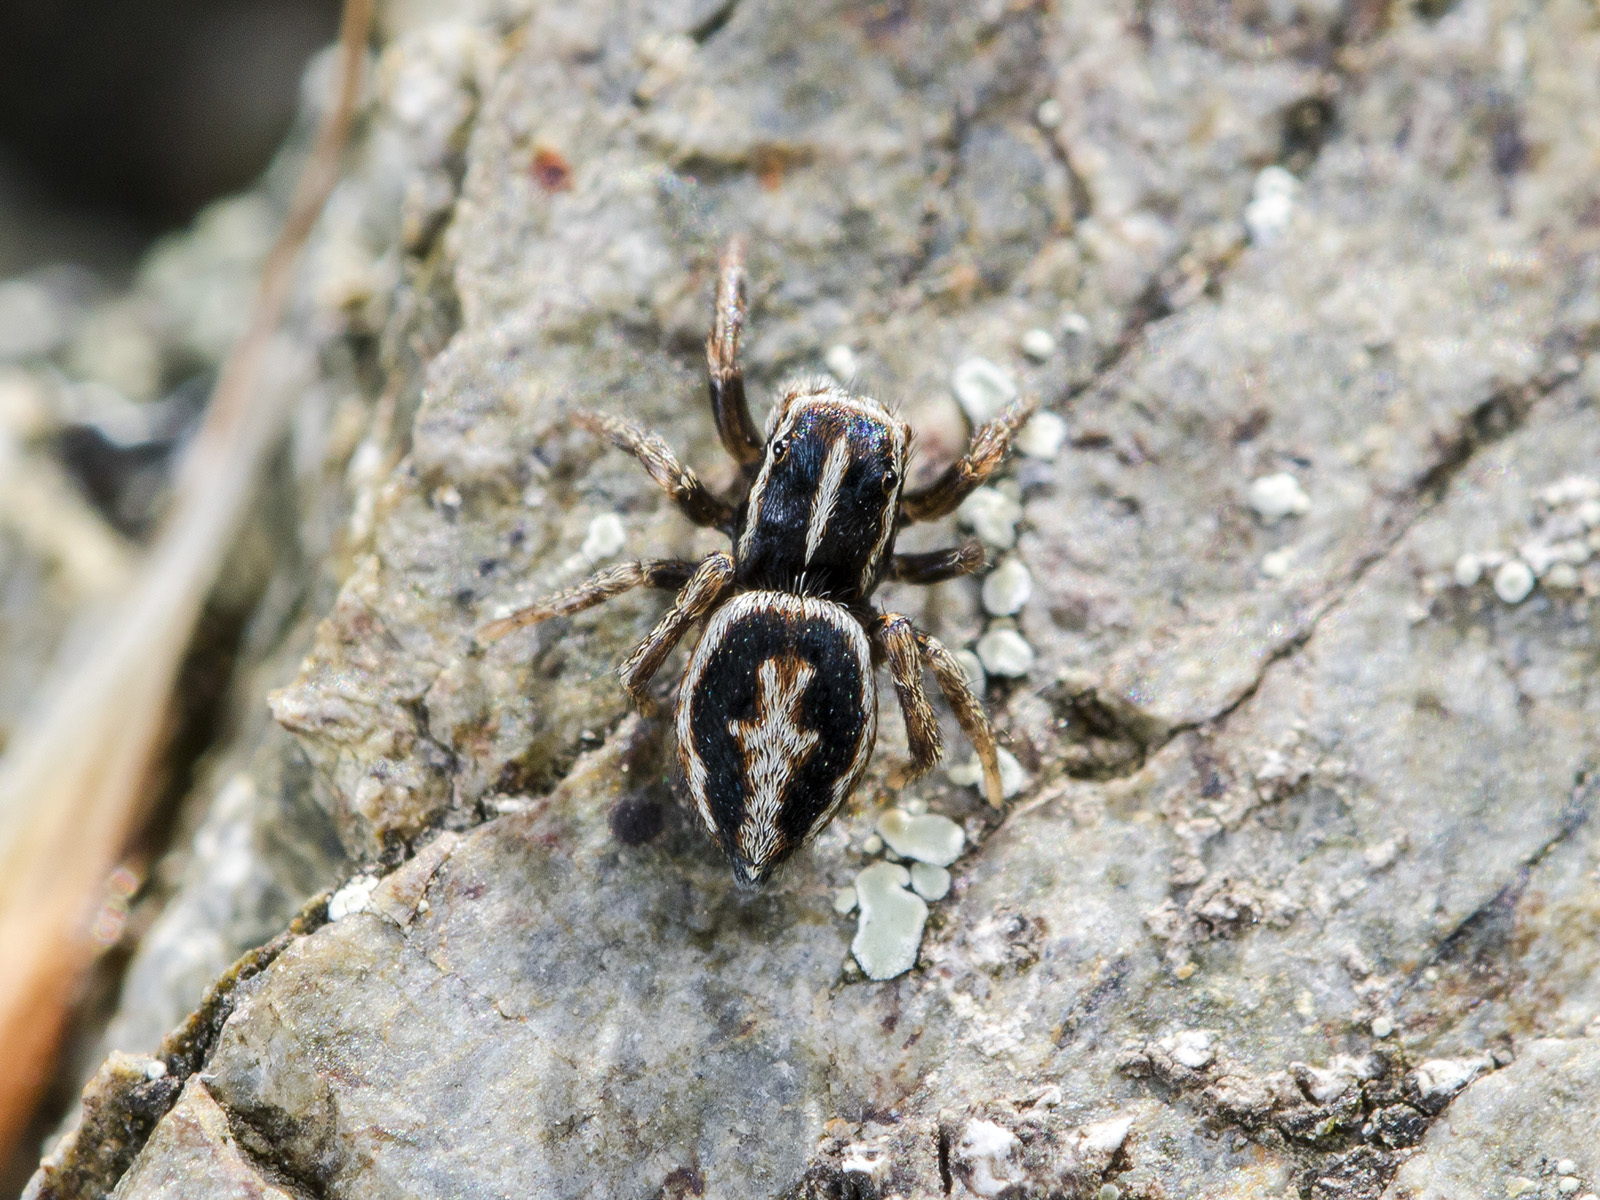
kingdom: Animalia
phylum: Arthropoda
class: Arachnida
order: Araneae
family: Salticidae
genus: Attulus
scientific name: Attulus talgarensis
